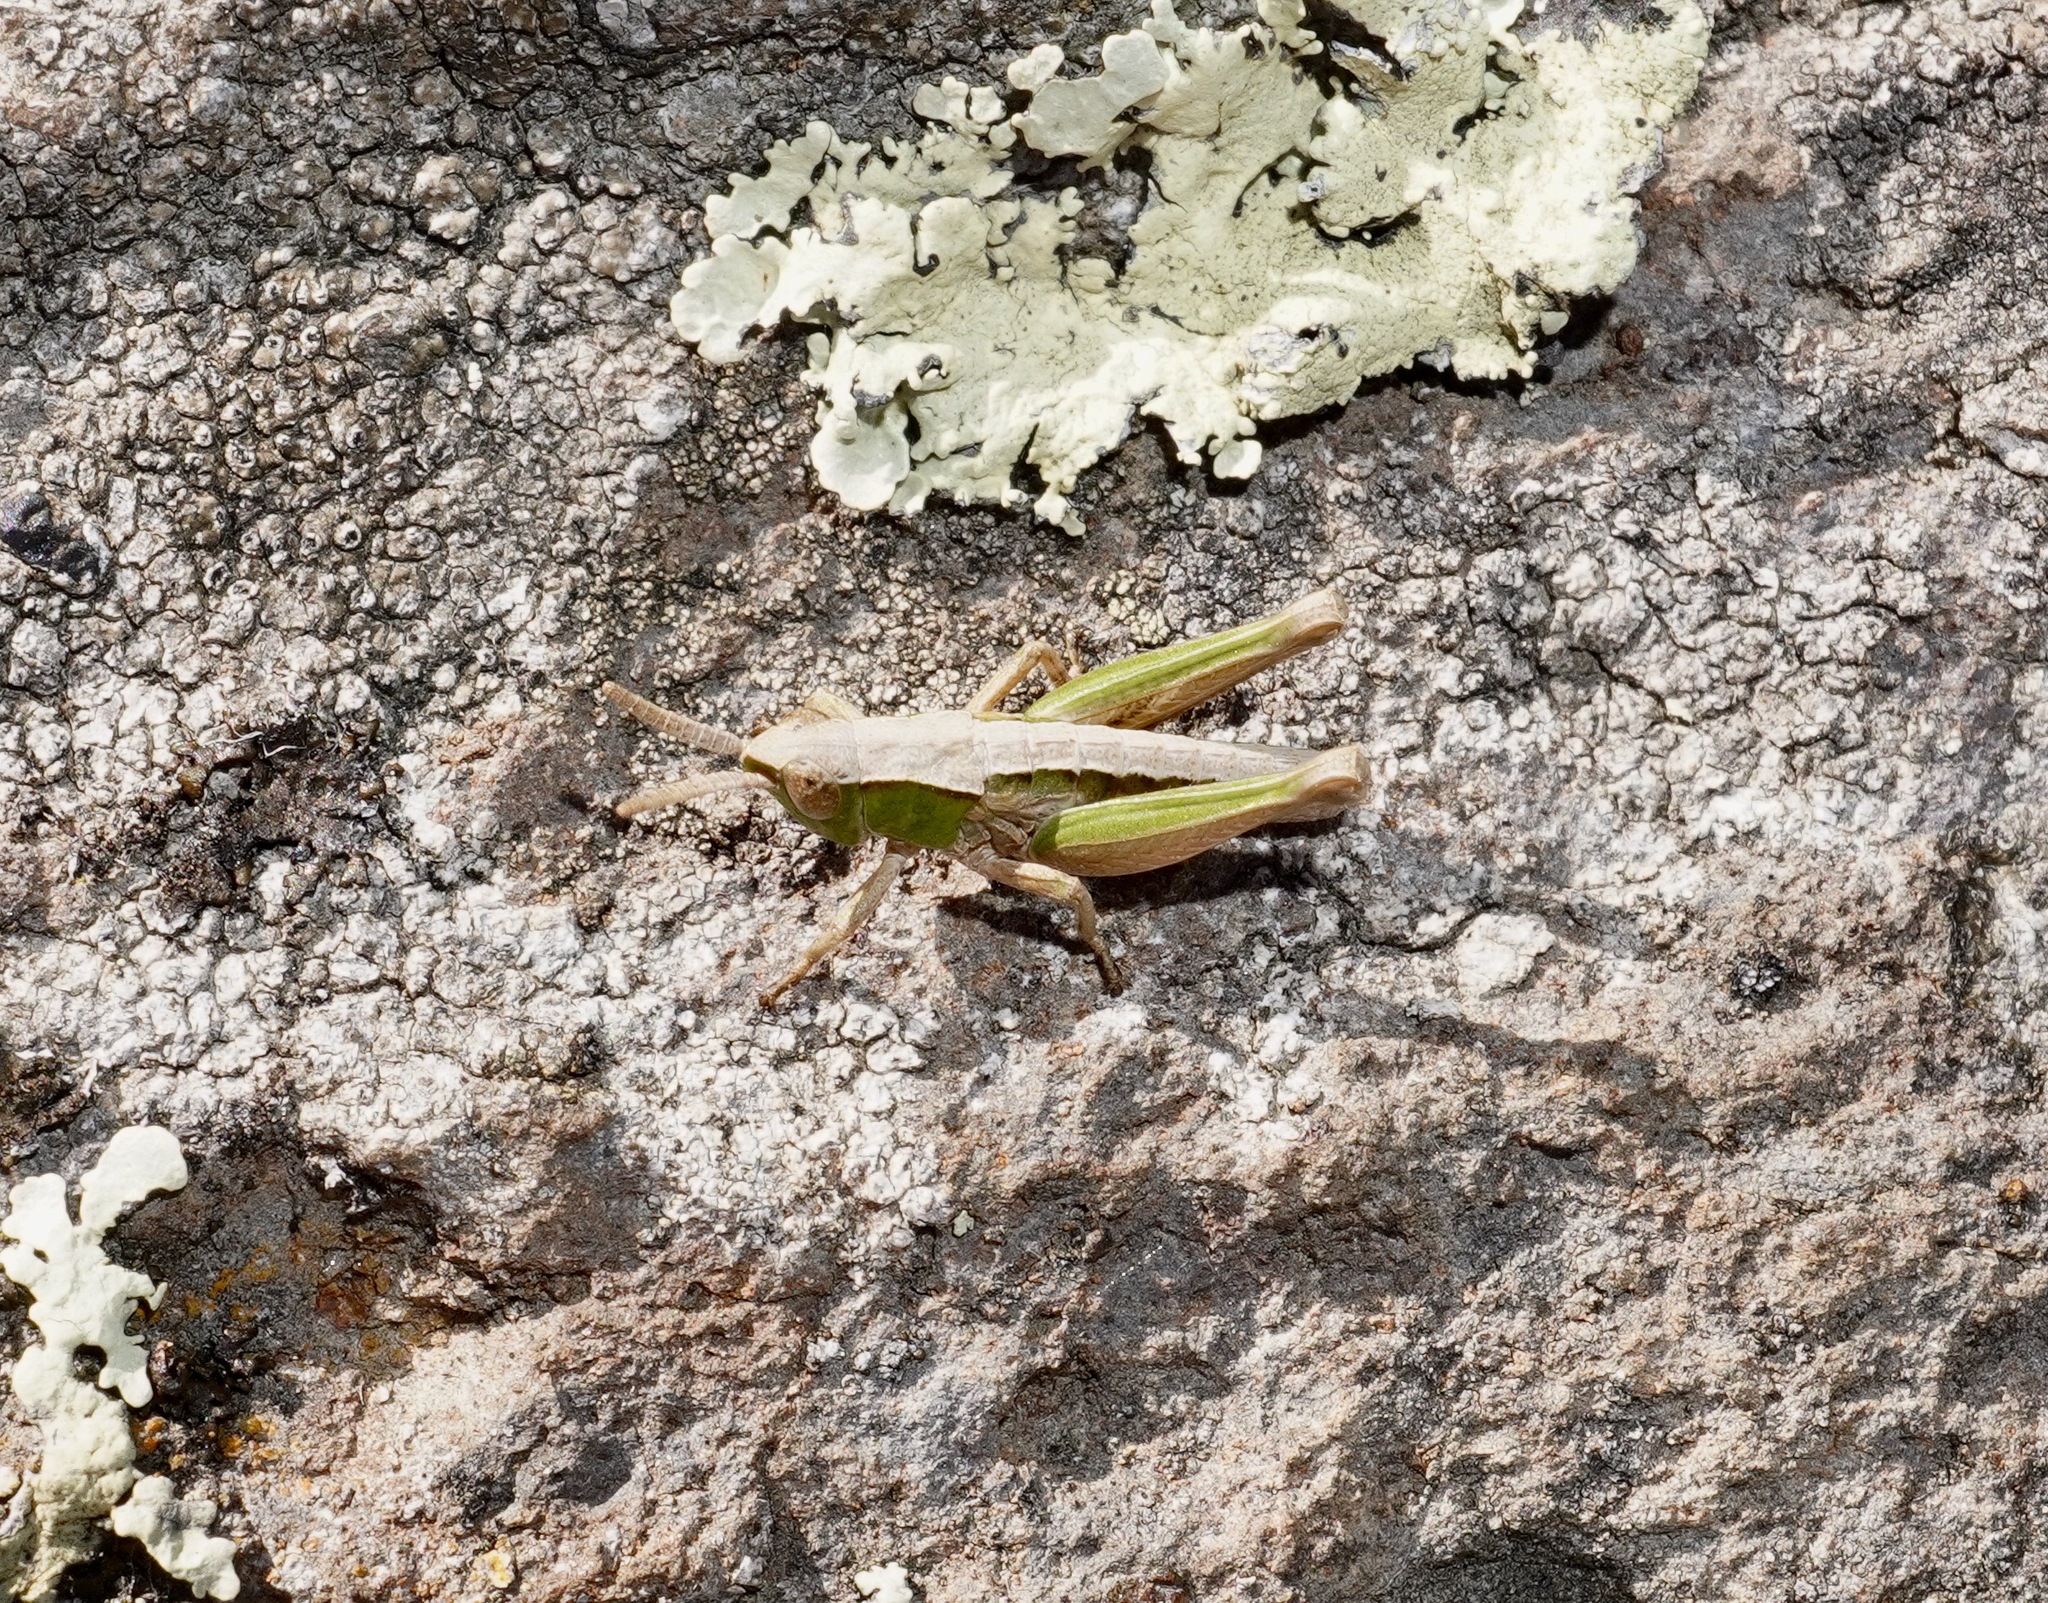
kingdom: Animalia
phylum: Arthropoda
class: Insecta
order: Orthoptera
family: Acrididae
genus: Sigaus
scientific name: Sigaus campestris
